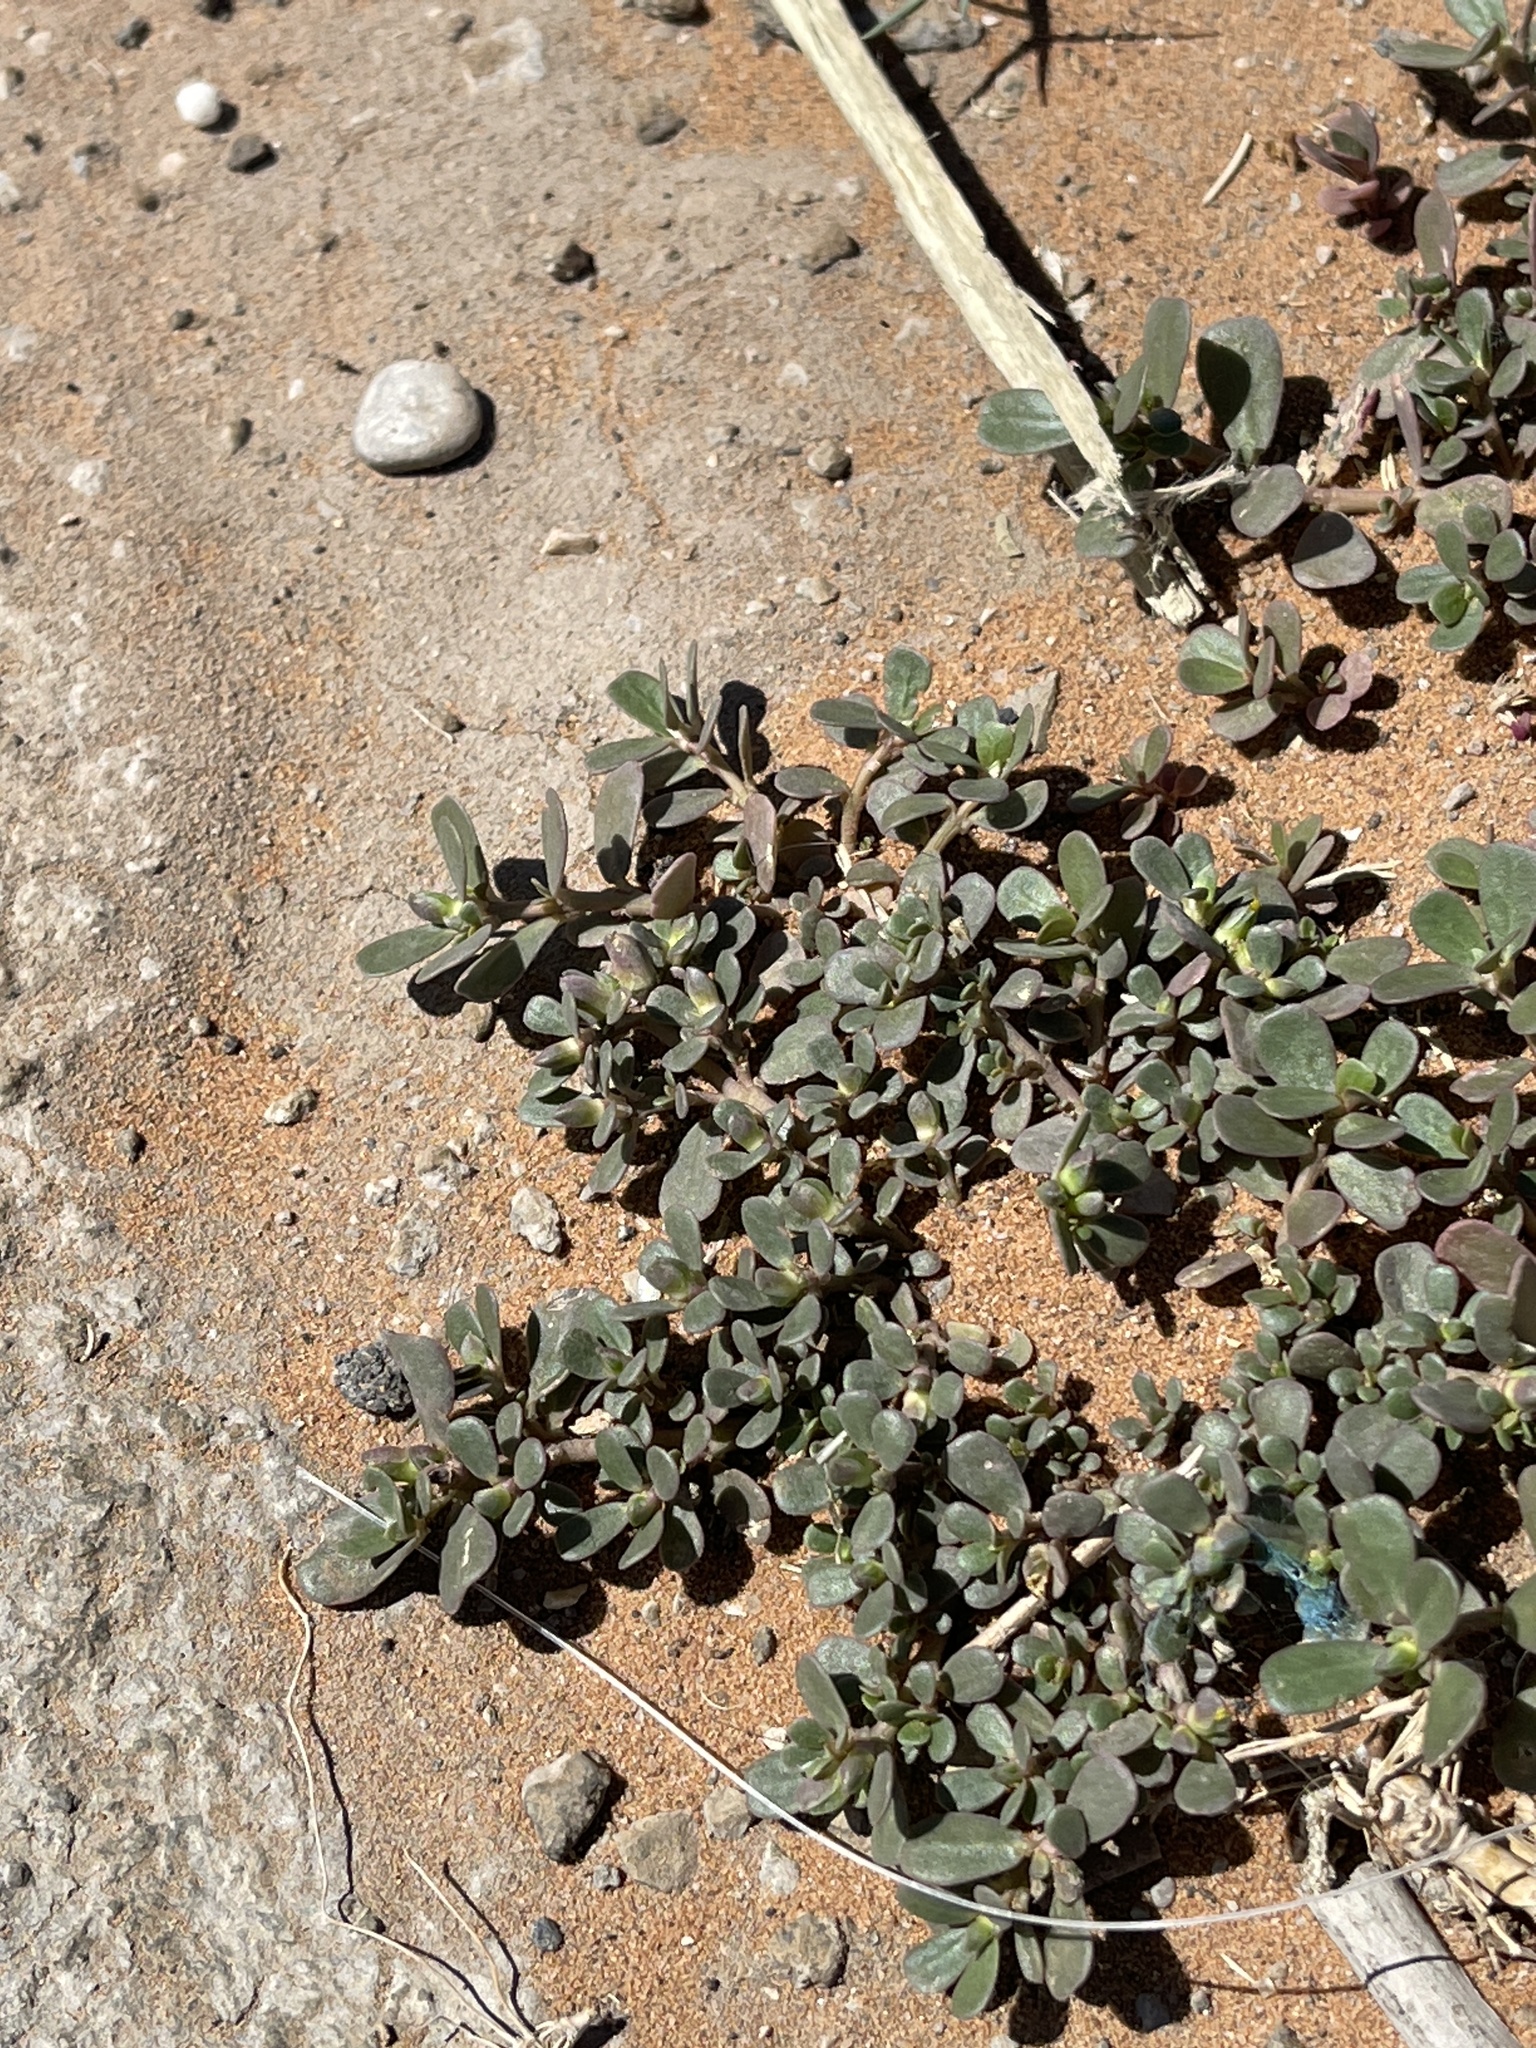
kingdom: Plantae
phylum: Tracheophyta
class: Magnoliopsida
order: Caryophyllales
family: Portulacaceae
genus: Portulaca
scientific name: Portulaca oleracea
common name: Common purslane
